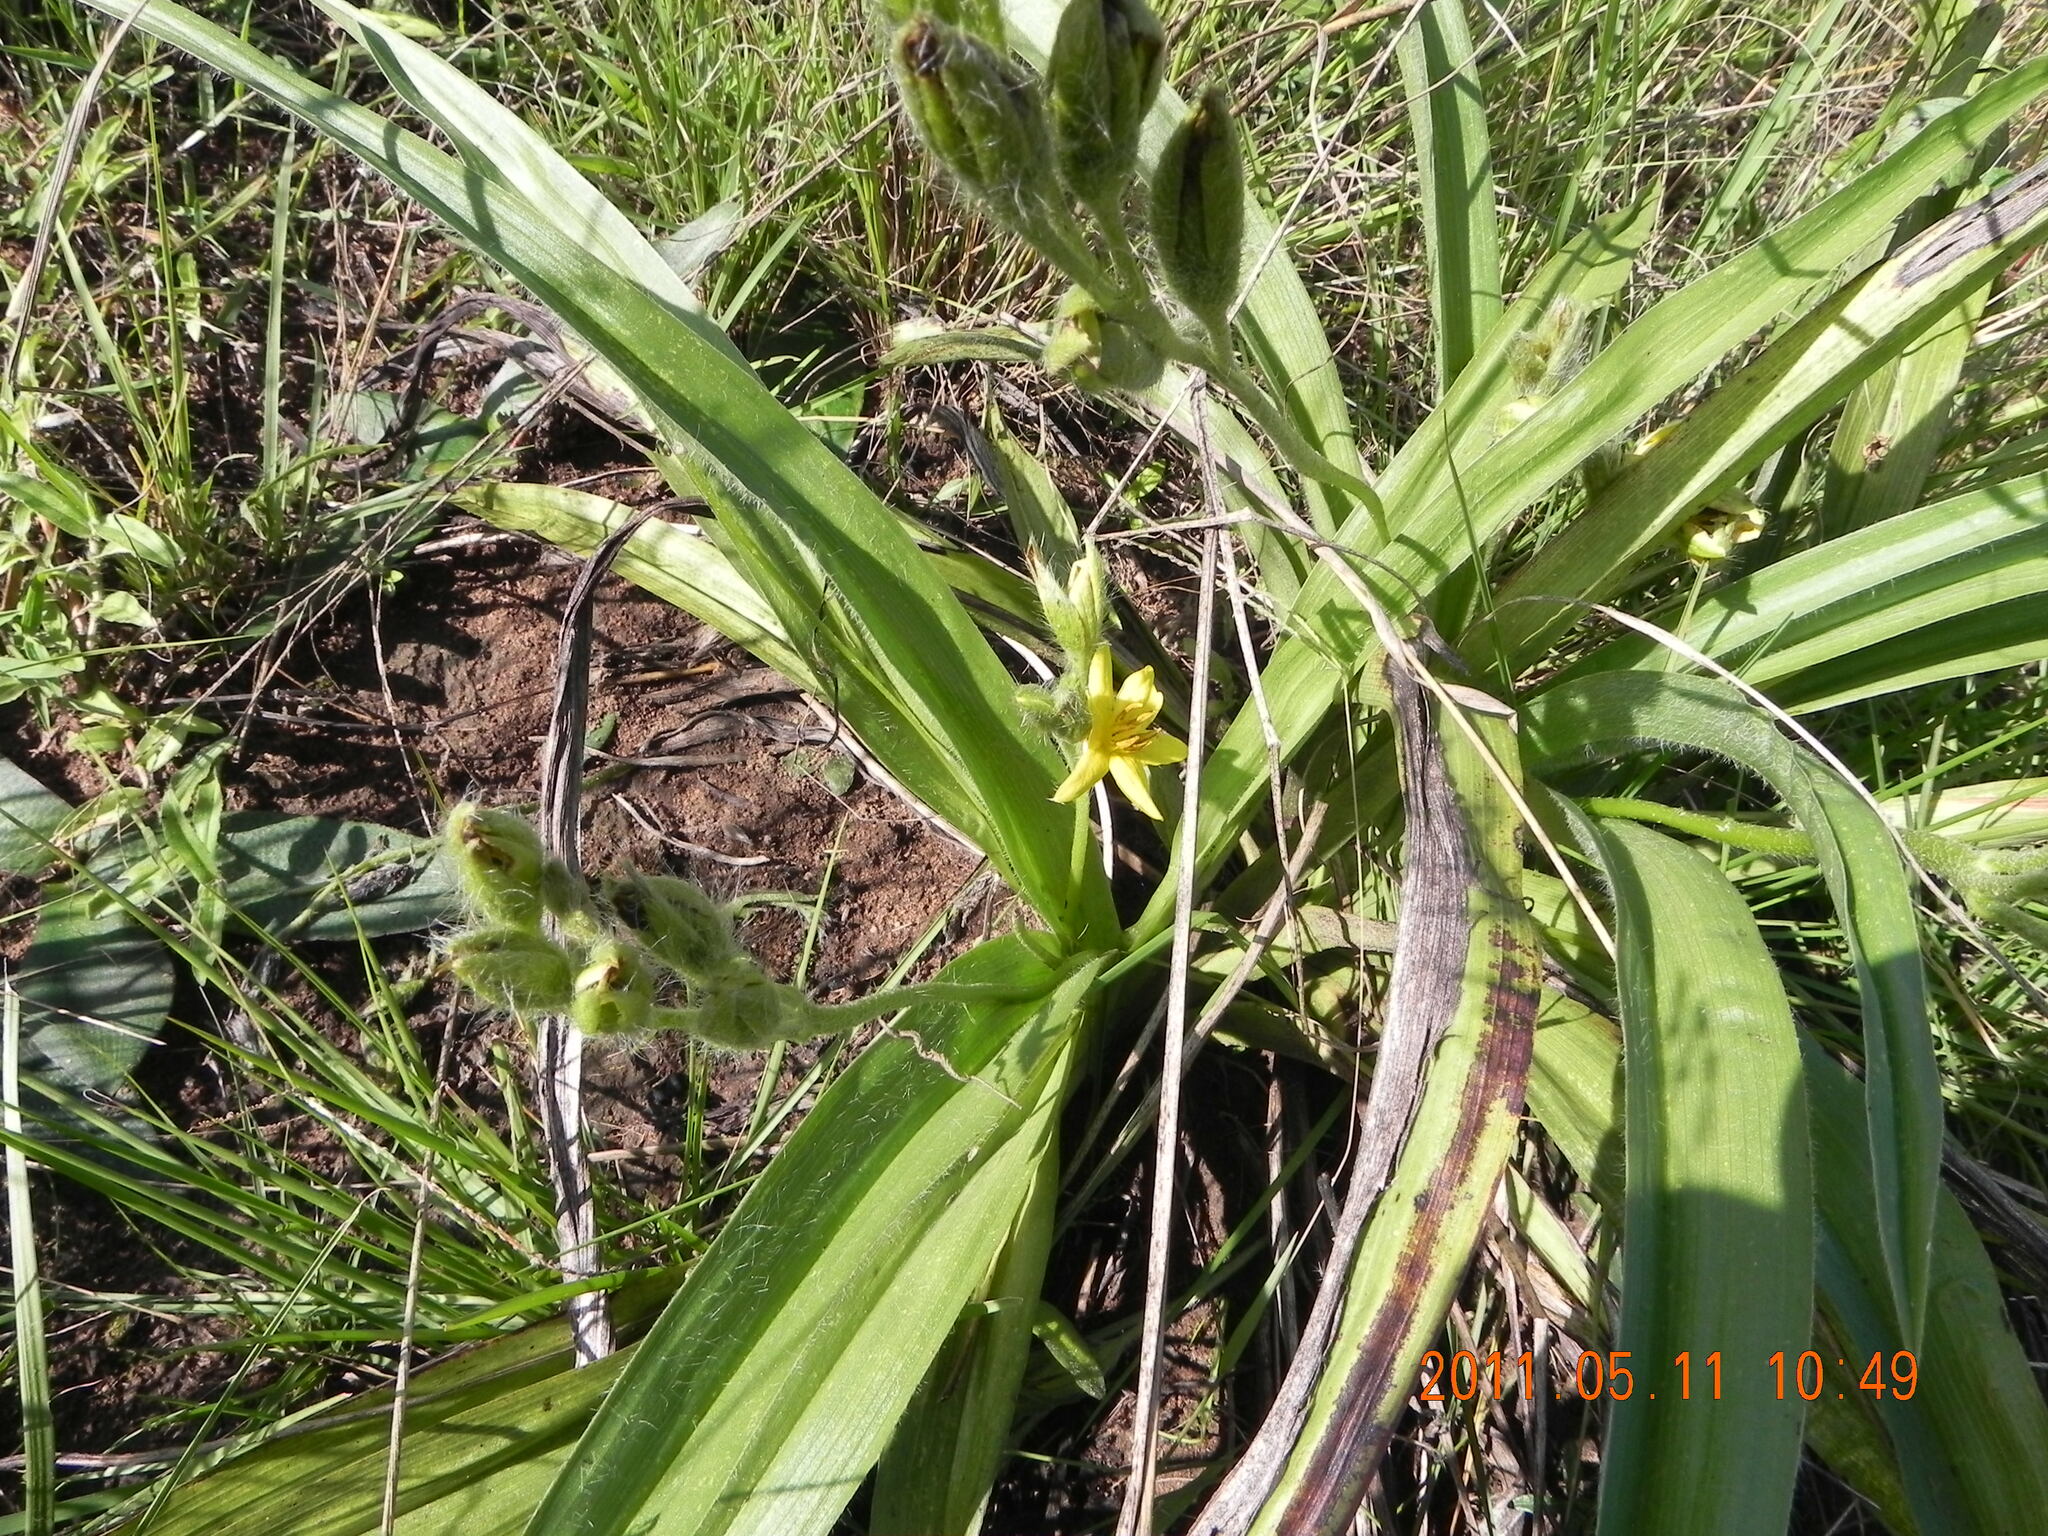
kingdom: Plantae
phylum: Tracheophyta
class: Liliopsida
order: Asparagales
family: Hypoxidaceae
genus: Hypoxis
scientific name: Hypoxis hemerocallidea
